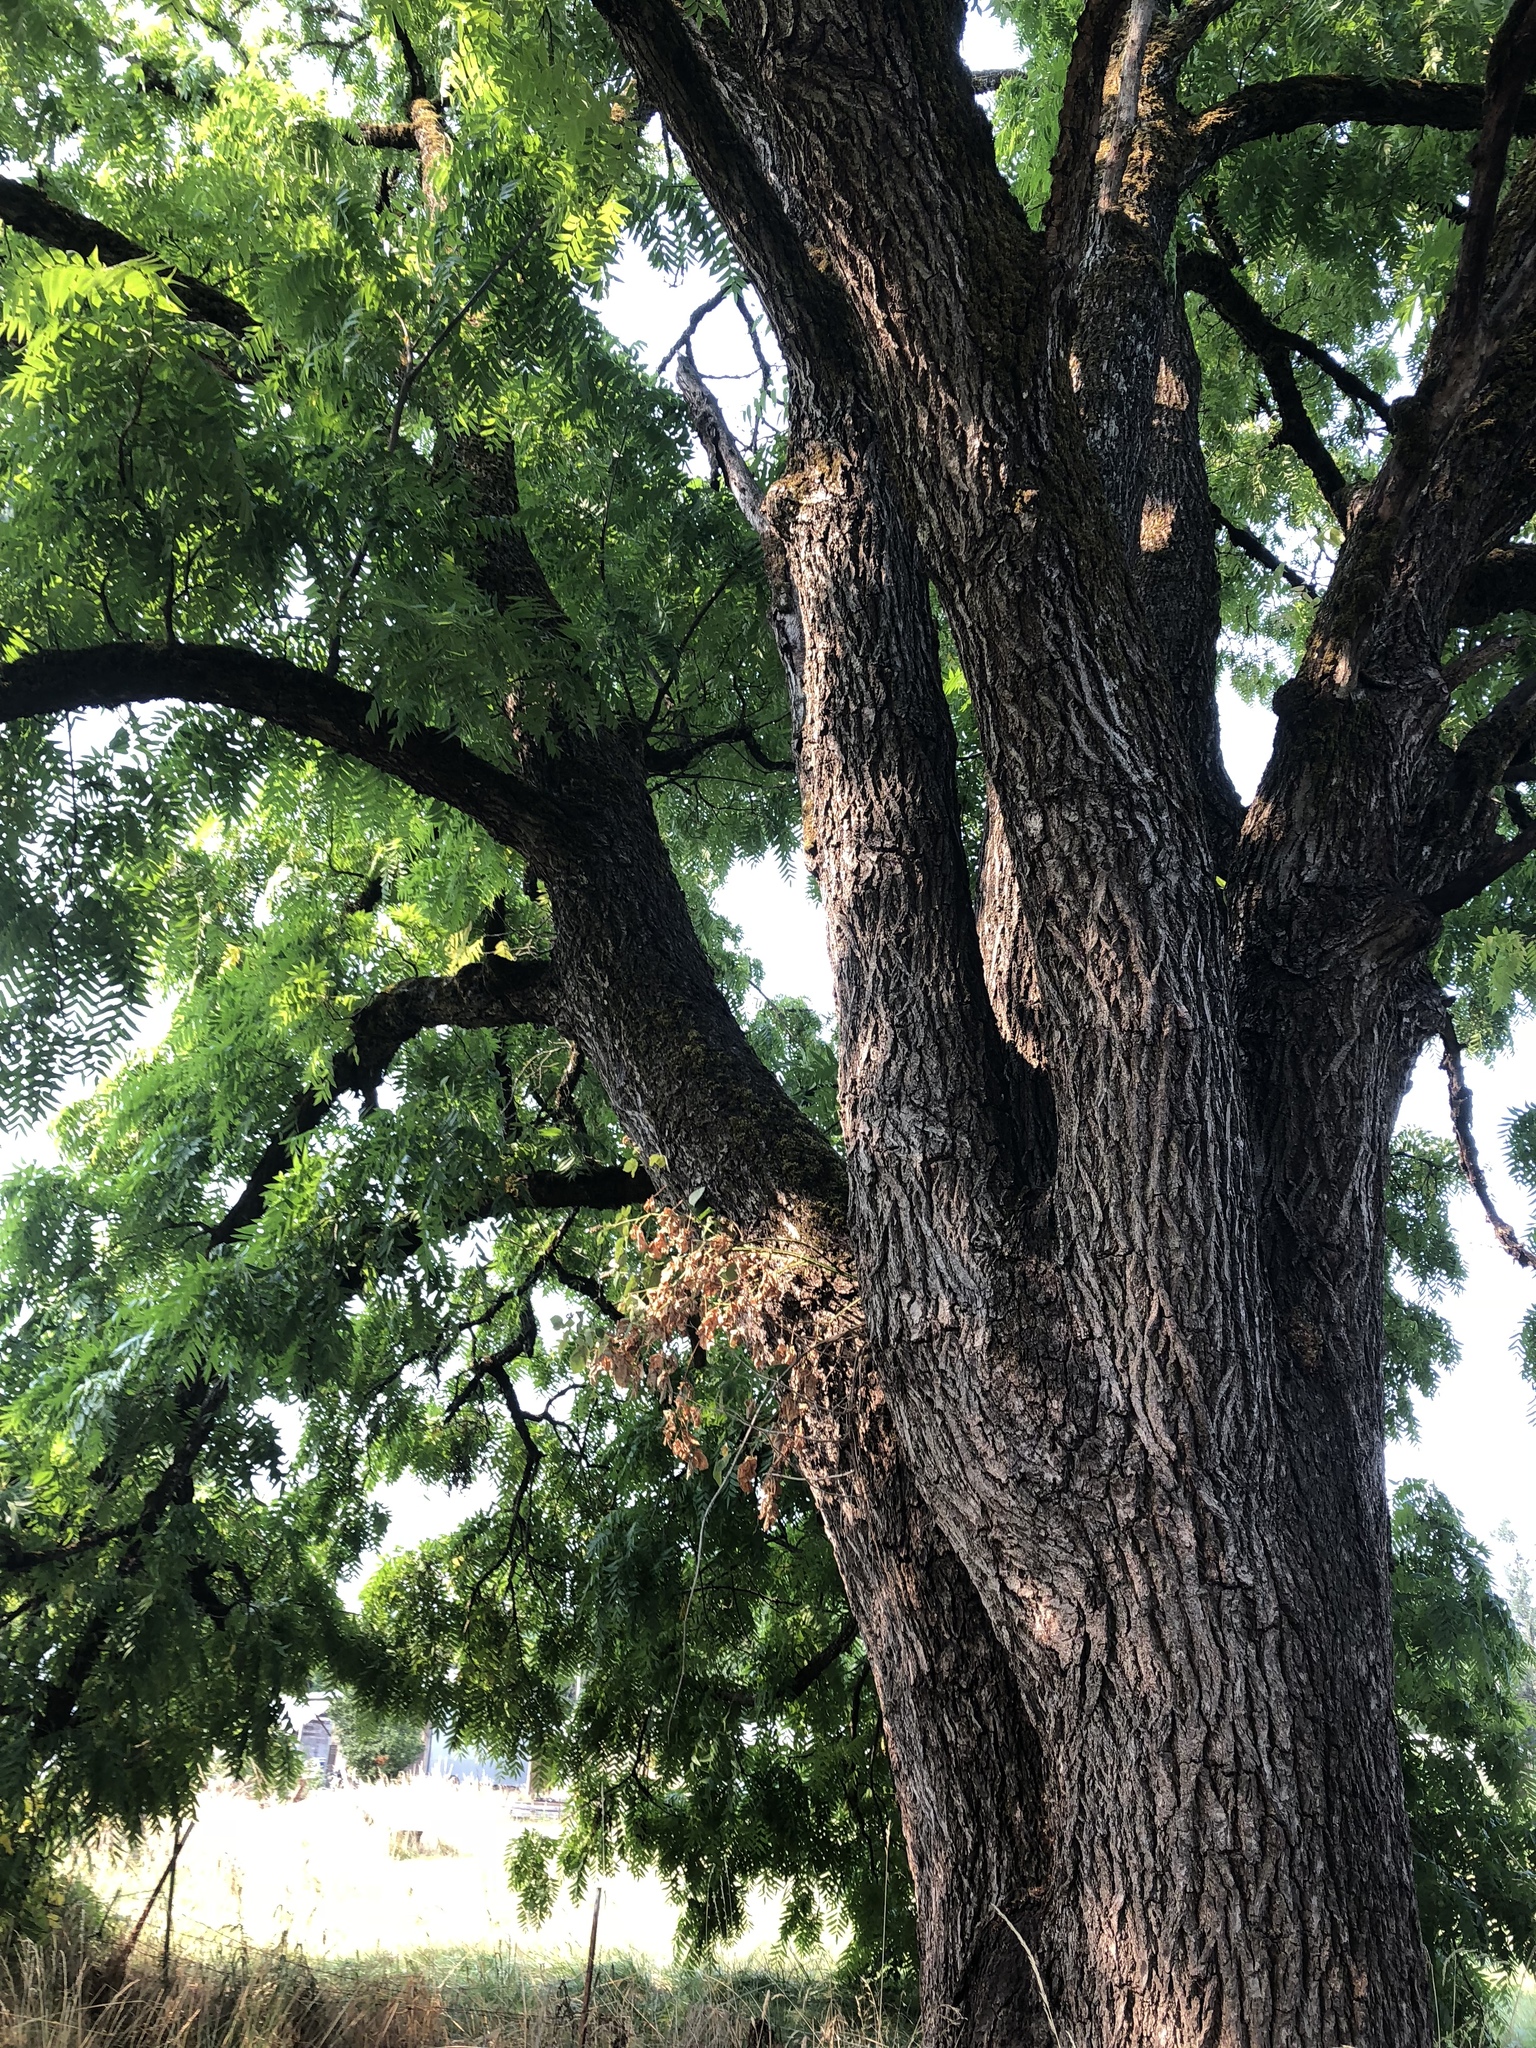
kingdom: Plantae
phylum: Tracheophyta
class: Magnoliopsida
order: Fagales
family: Juglandaceae
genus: Juglans
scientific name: Juglans nigra
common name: Black walnut
